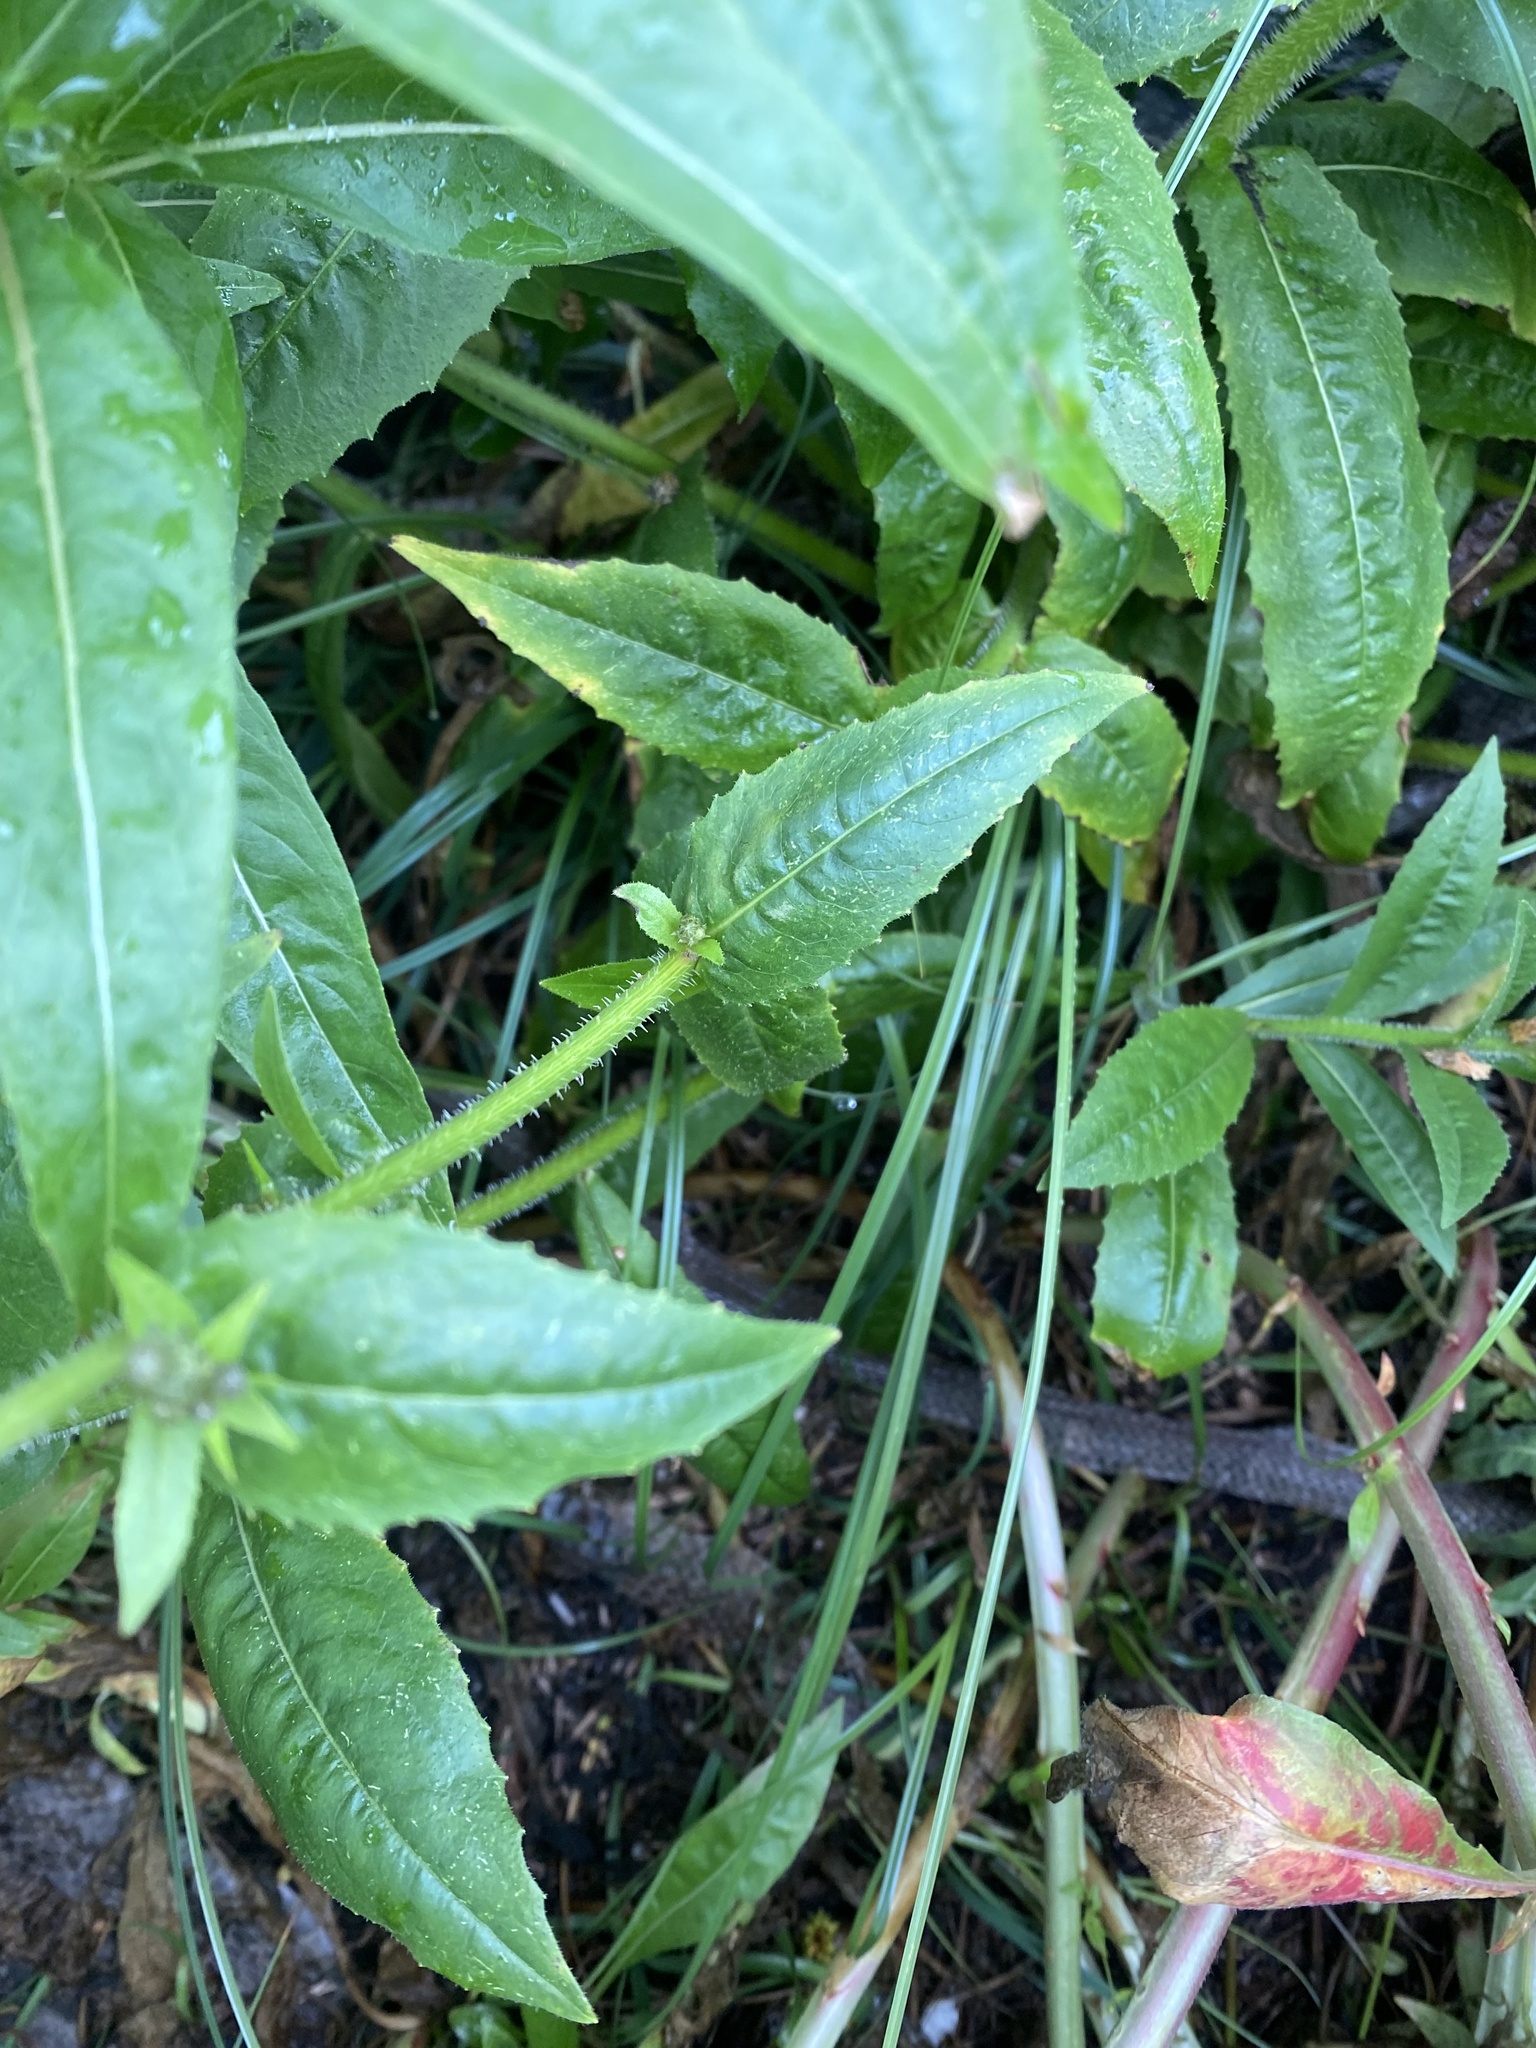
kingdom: Plantae
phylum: Tracheophyta
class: Magnoliopsida
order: Asterales
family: Asteraceae
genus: Picris
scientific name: Picris japonica
